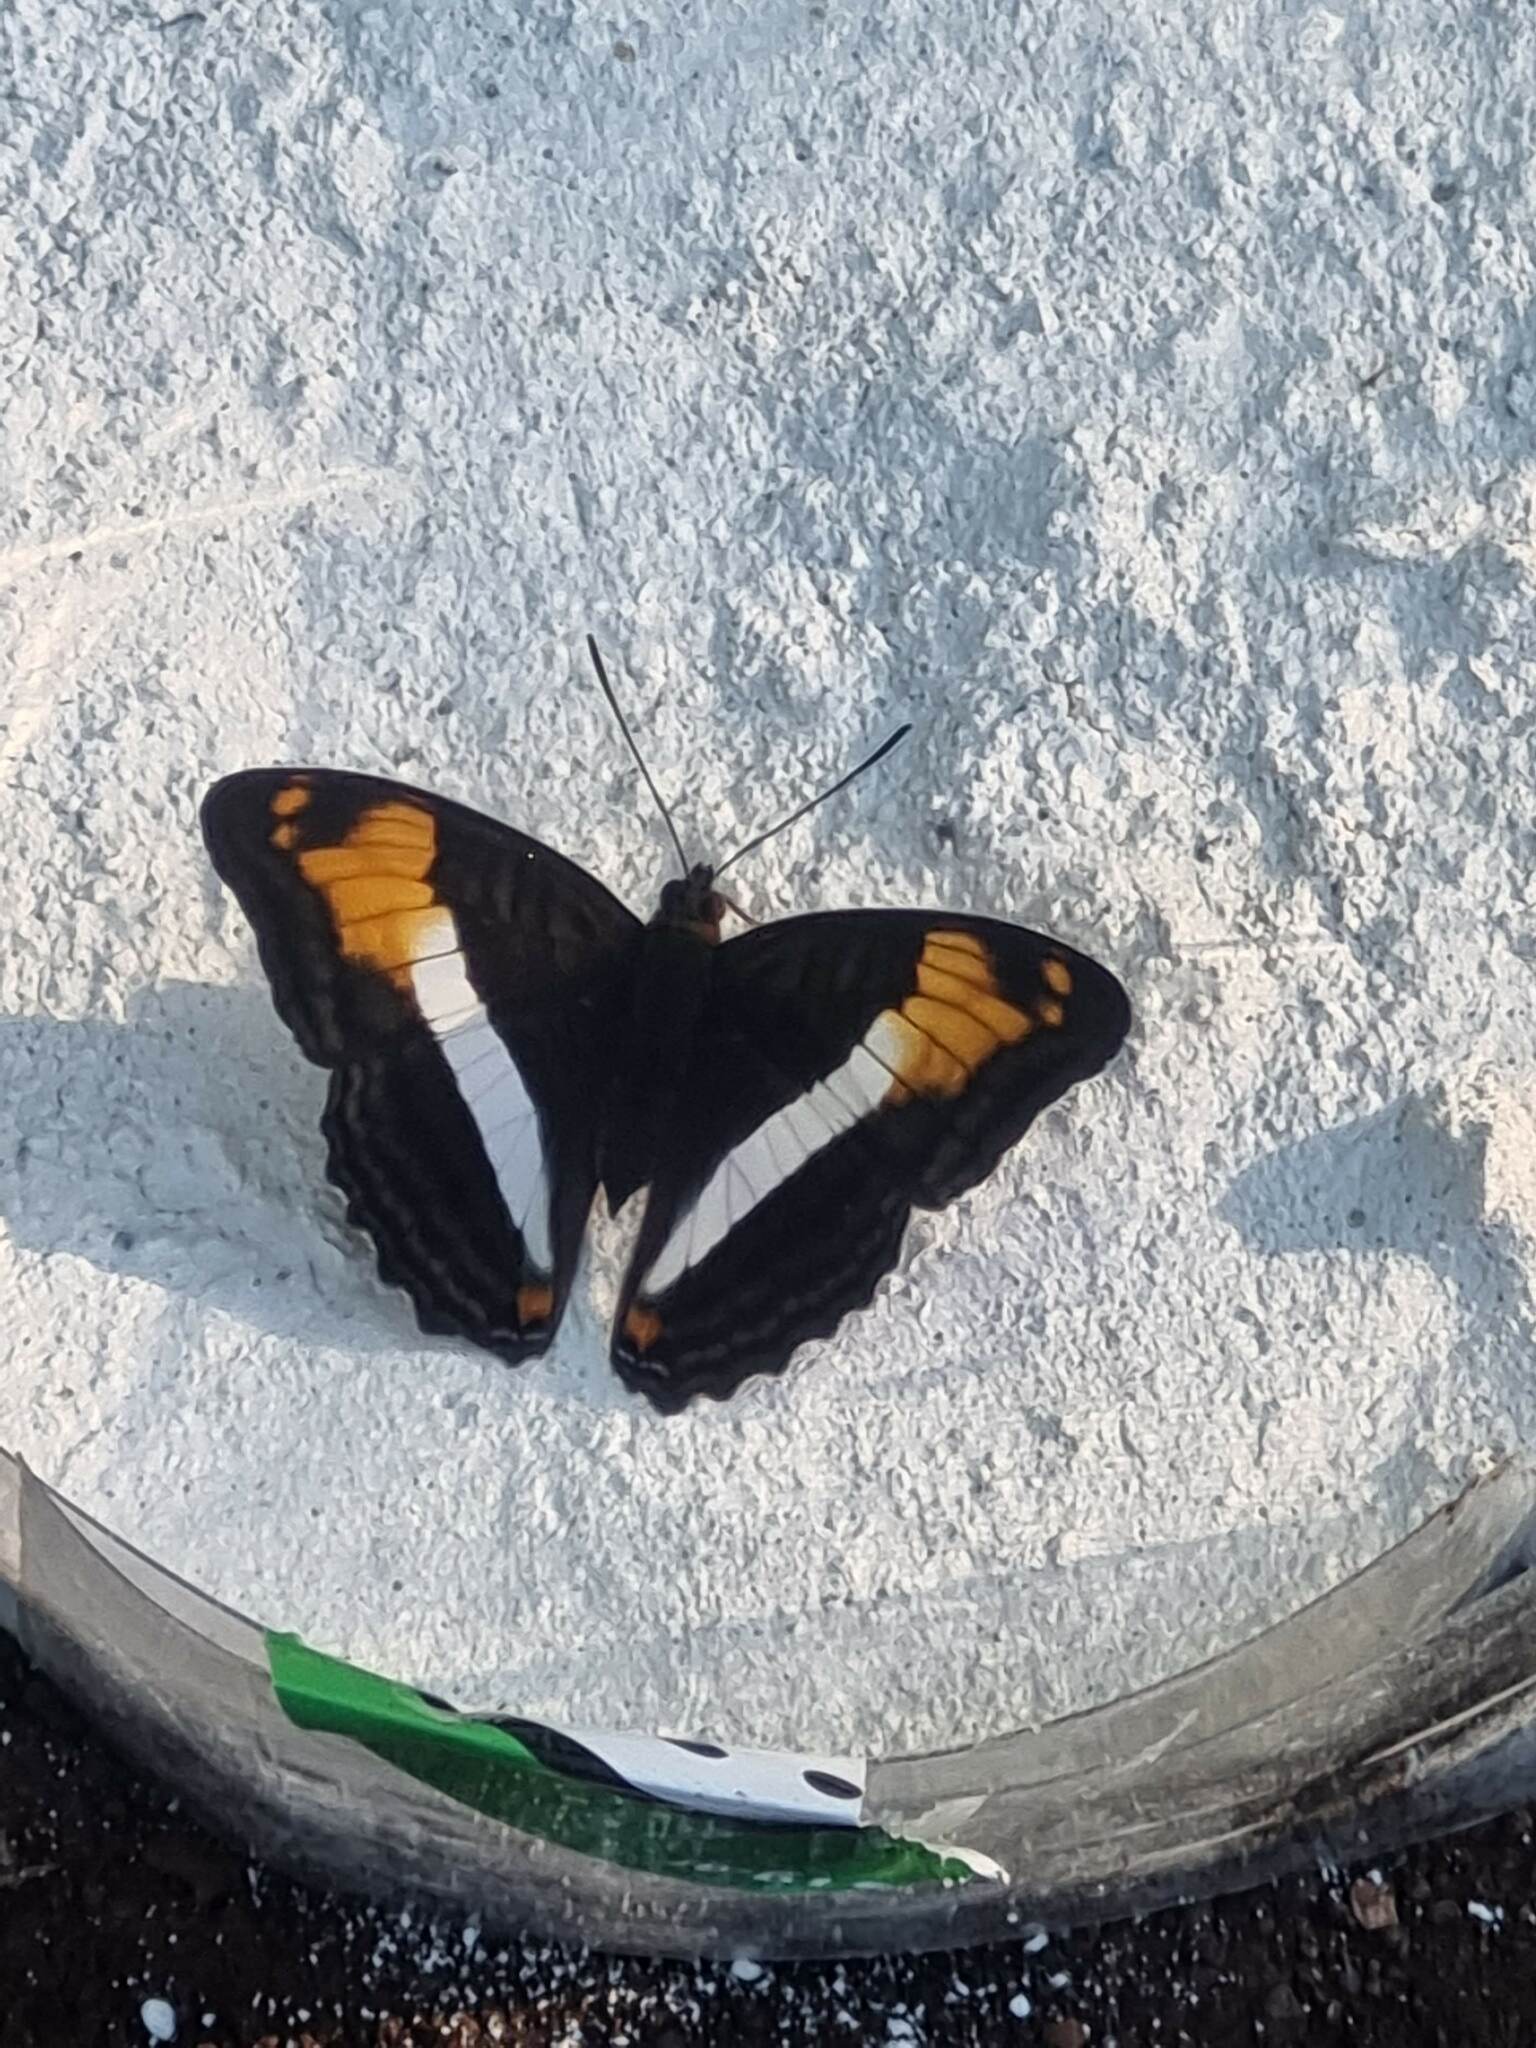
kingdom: Animalia
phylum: Arthropoda
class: Insecta
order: Lepidoptera
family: Nymphalidae
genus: Limenitis
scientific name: Limenitis malea
